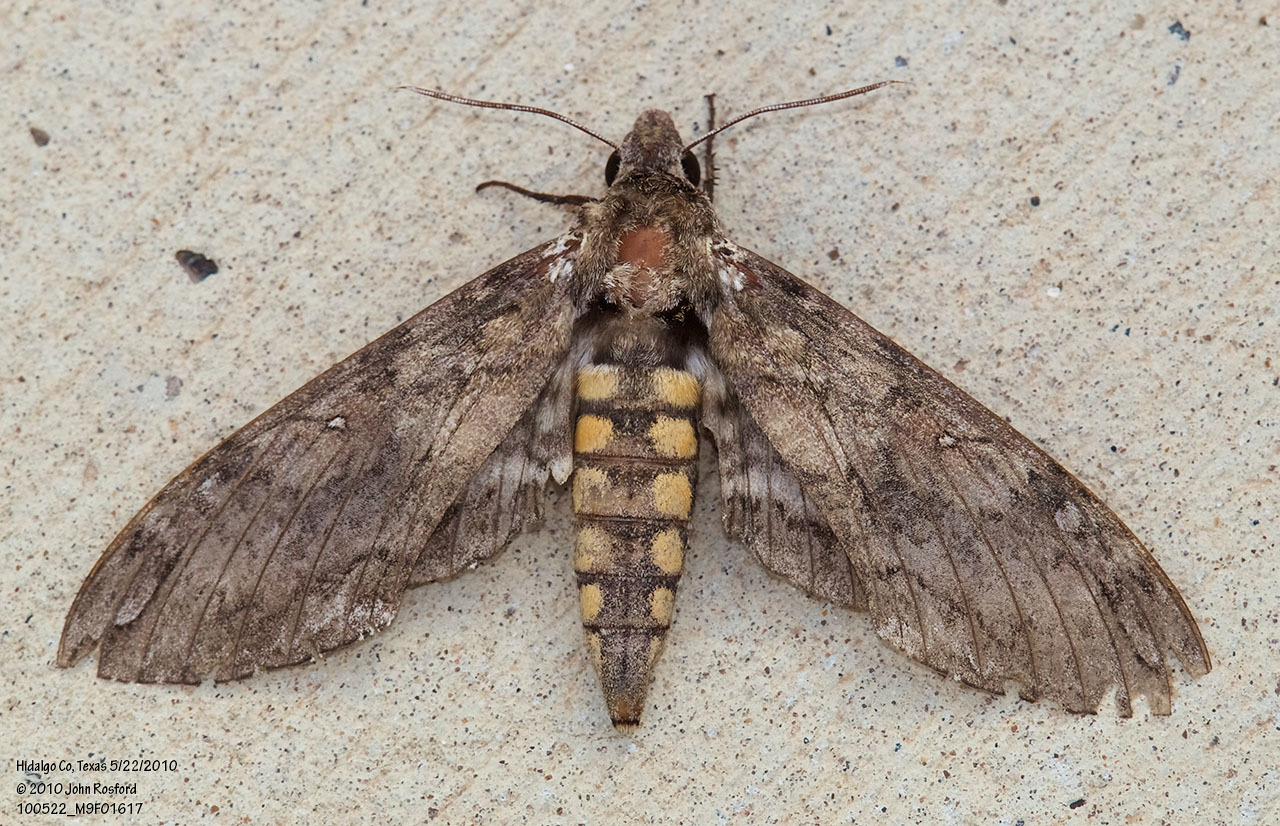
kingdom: Animalia
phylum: Arthropoda
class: Insecta
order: Lepidoptera
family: Sphingidae
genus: Manduca
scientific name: Manduca sexta
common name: Carolina sphinx
